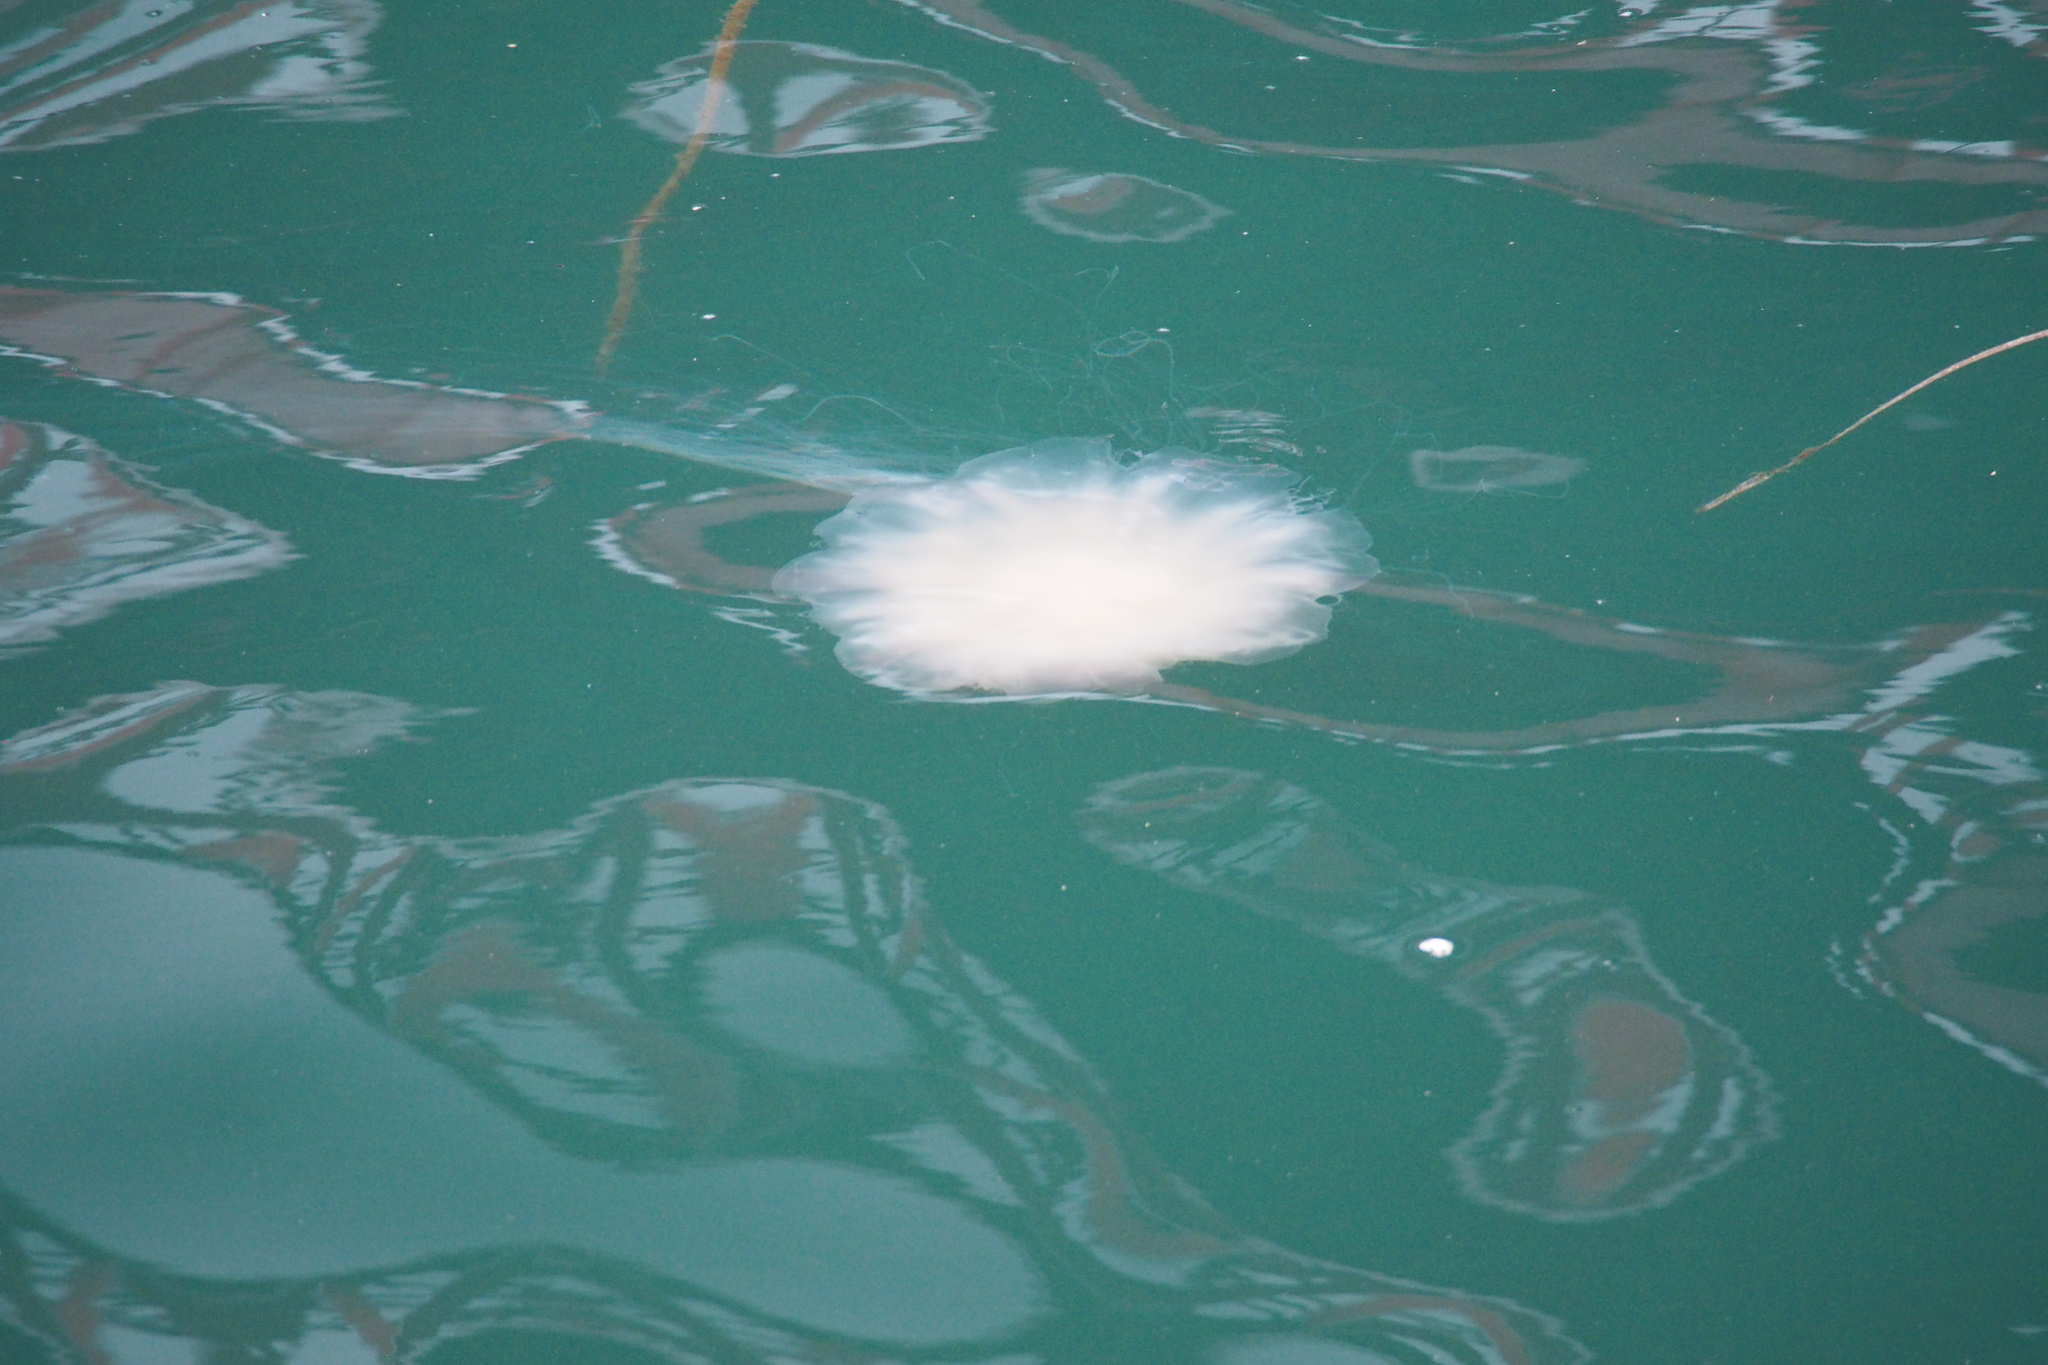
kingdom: Animalia
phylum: Cnidaria
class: Scyphozoa
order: Semaeostomeae
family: Cyaneidae
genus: Cyanea
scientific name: Cyanea nozakii
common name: Lion’s mane
